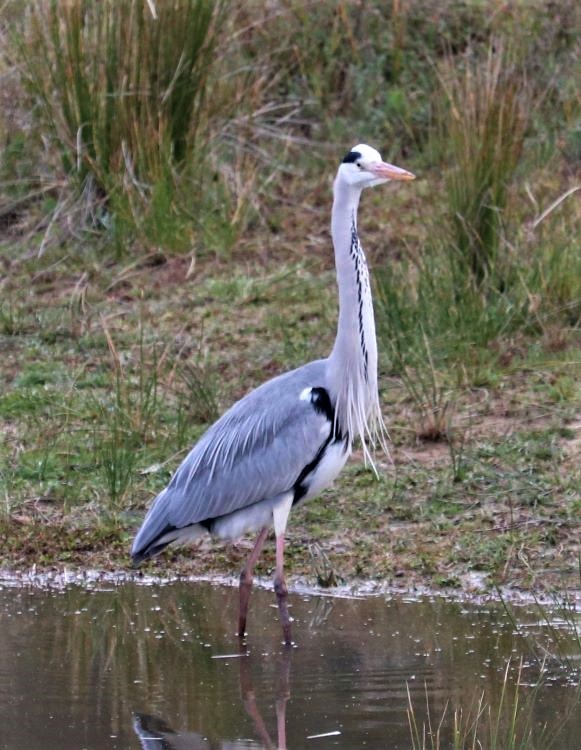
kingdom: Animalia
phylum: Chordata
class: Aves
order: Pelecaniformes
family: Ardeidae
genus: Ardea
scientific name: Ardea cinerea
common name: Grey heron
